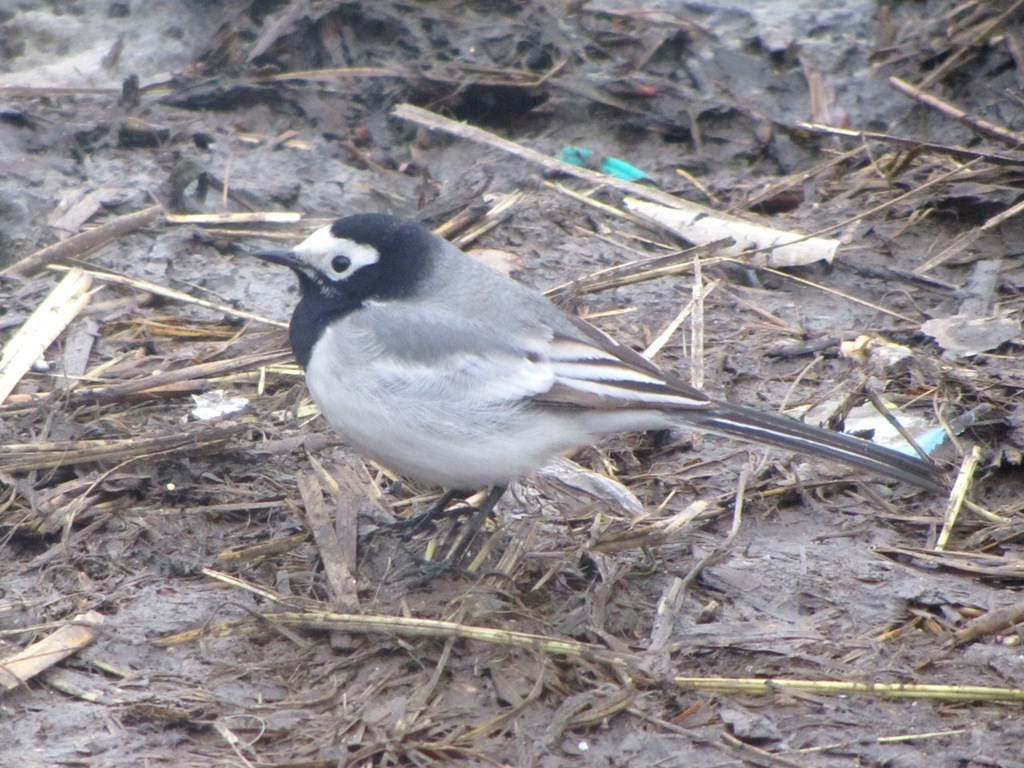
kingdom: Animalia
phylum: Chordata
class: Aves
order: Passeriformes
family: Motacillidae
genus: Motacilla
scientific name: Motacilla alba
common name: White wagtail
